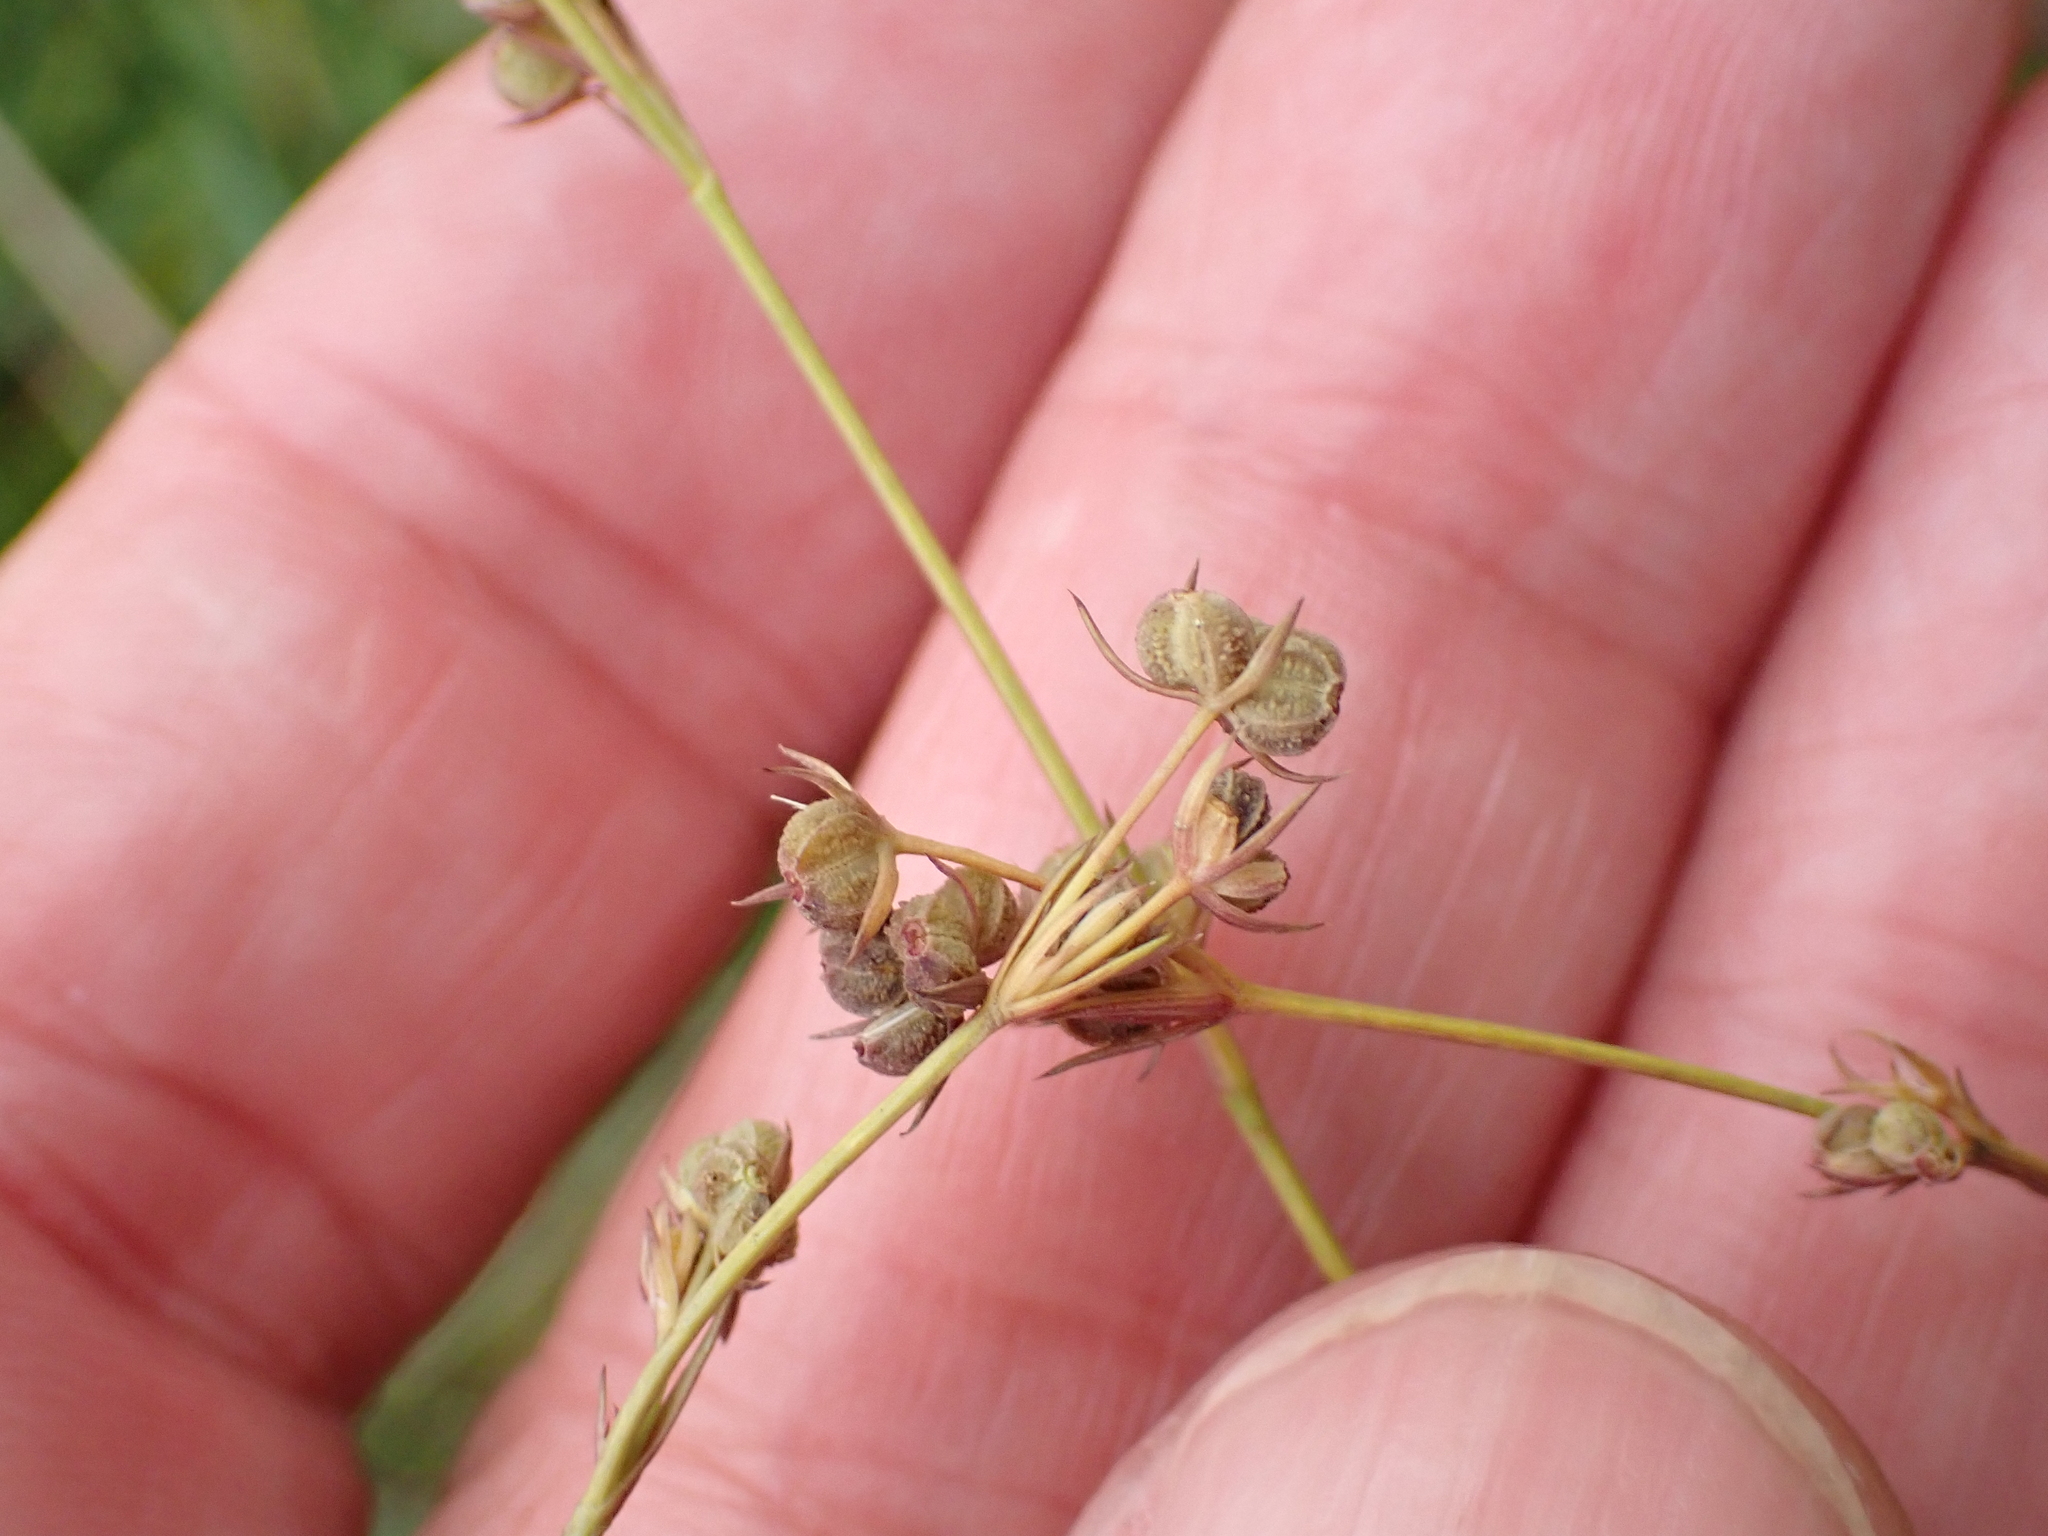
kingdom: Plantae
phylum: Tracheophyta
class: Magnoliopsida
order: Apiales
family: Apiaceae
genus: Bupleurum
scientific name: Bupleurum tenuissimum
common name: Slender hare's-ear
